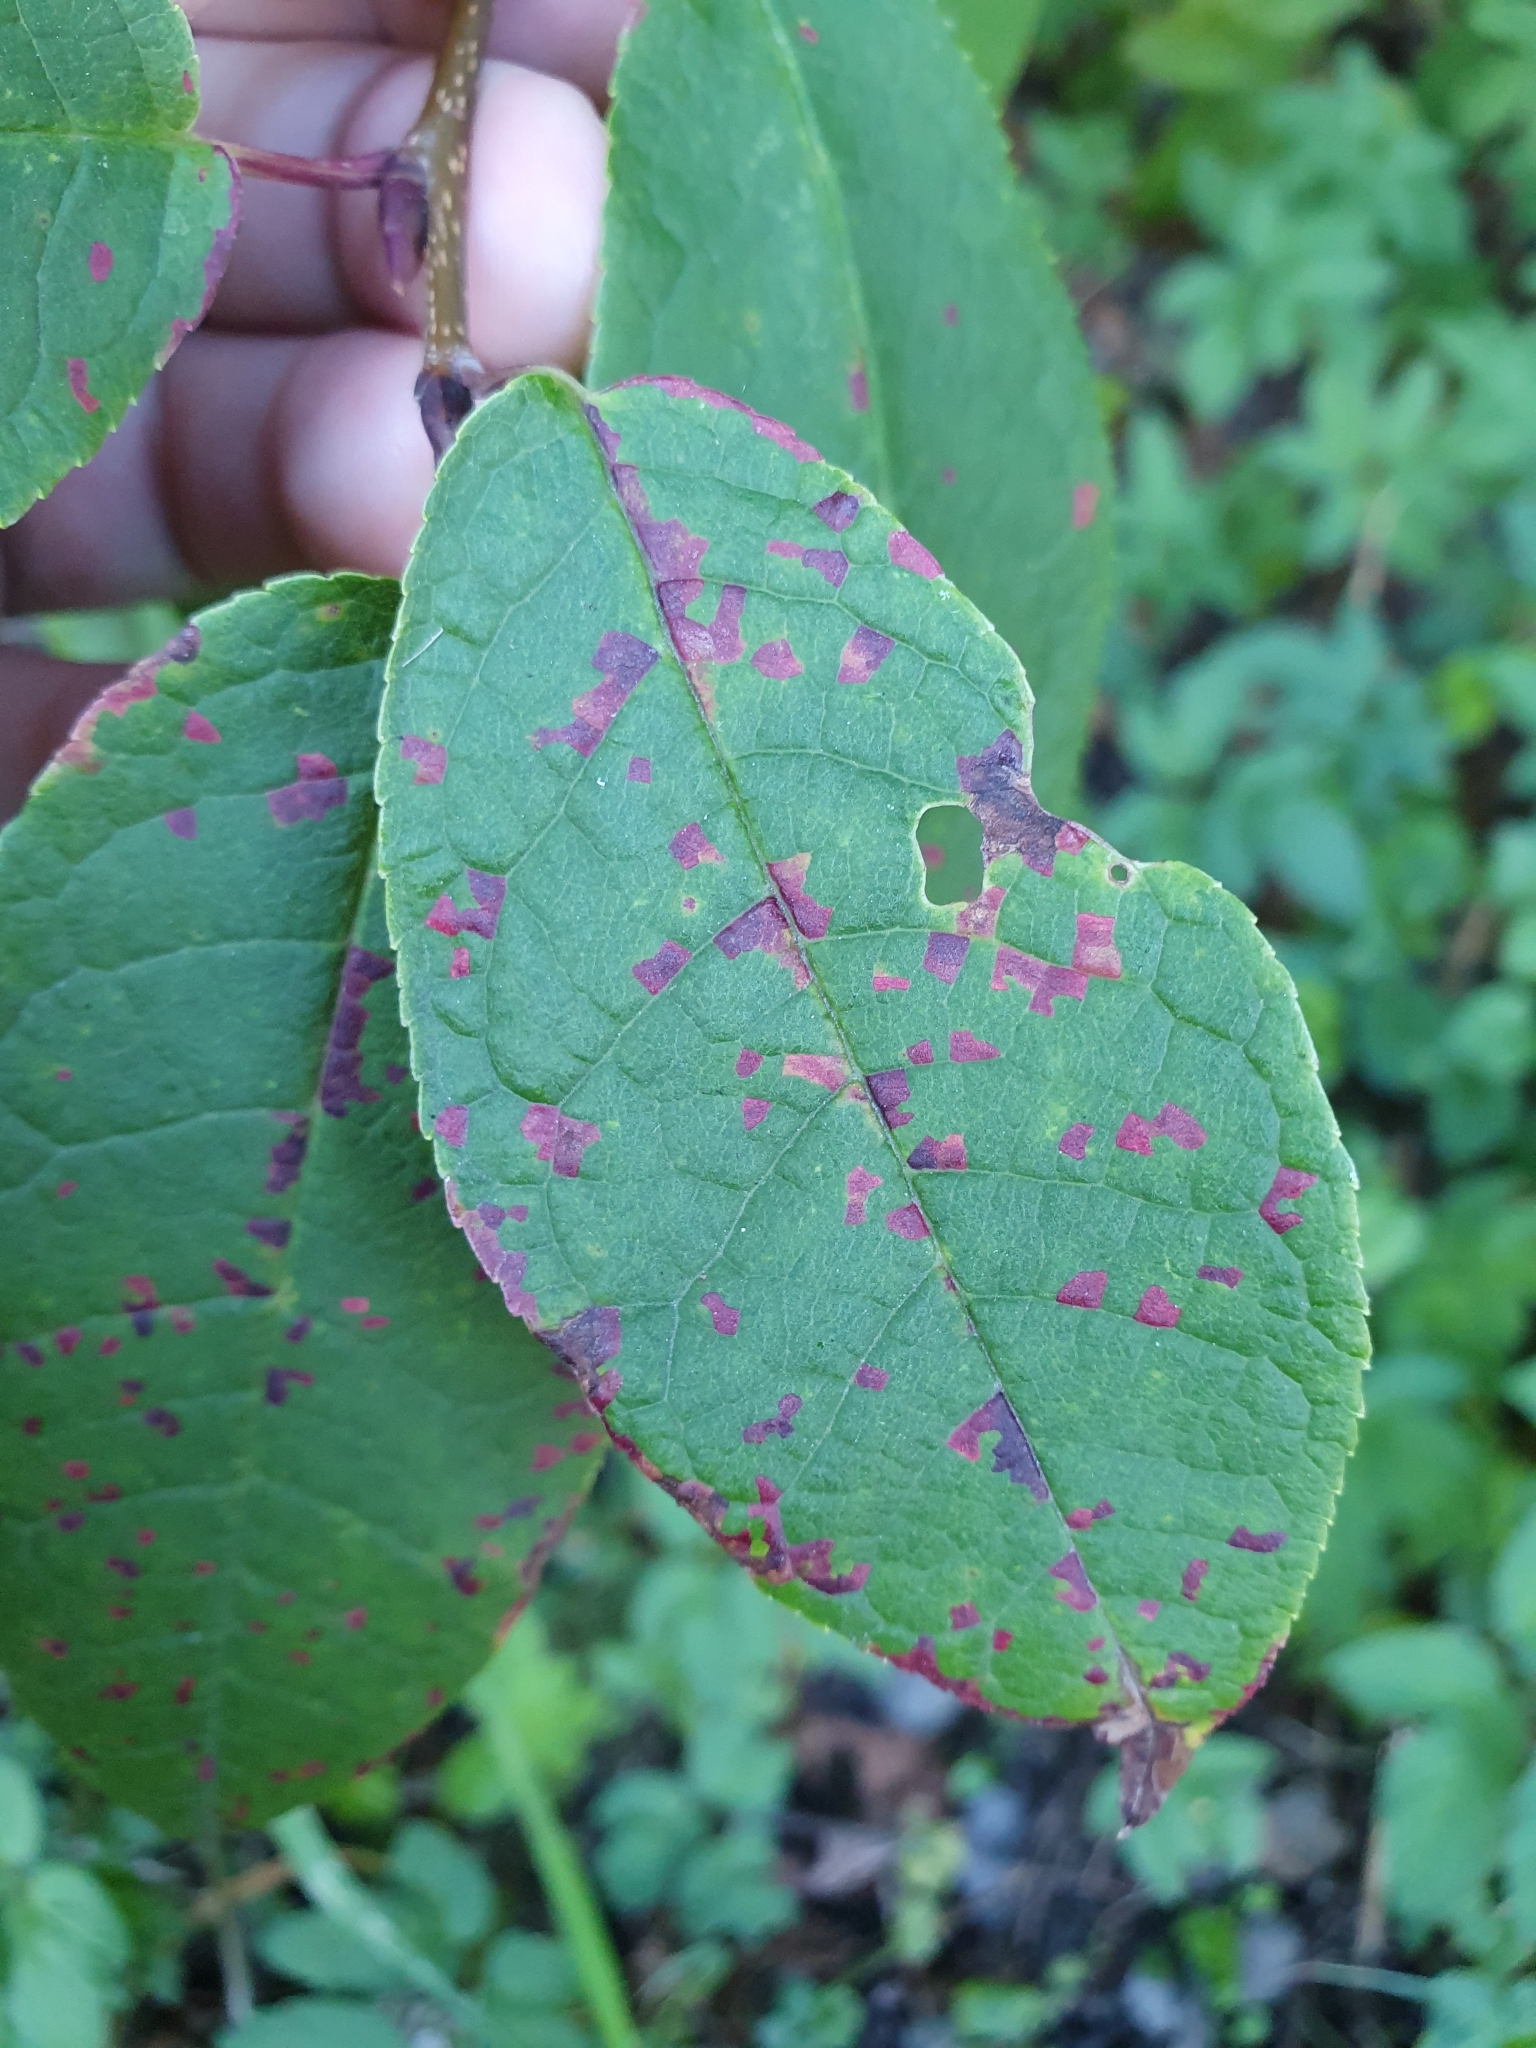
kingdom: Fungi
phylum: Basidiomycota
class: Pucciniomycetes
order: Pucciniales
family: Pucciniastraceae
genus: Thekopsora
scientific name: Thekopsora areolata
